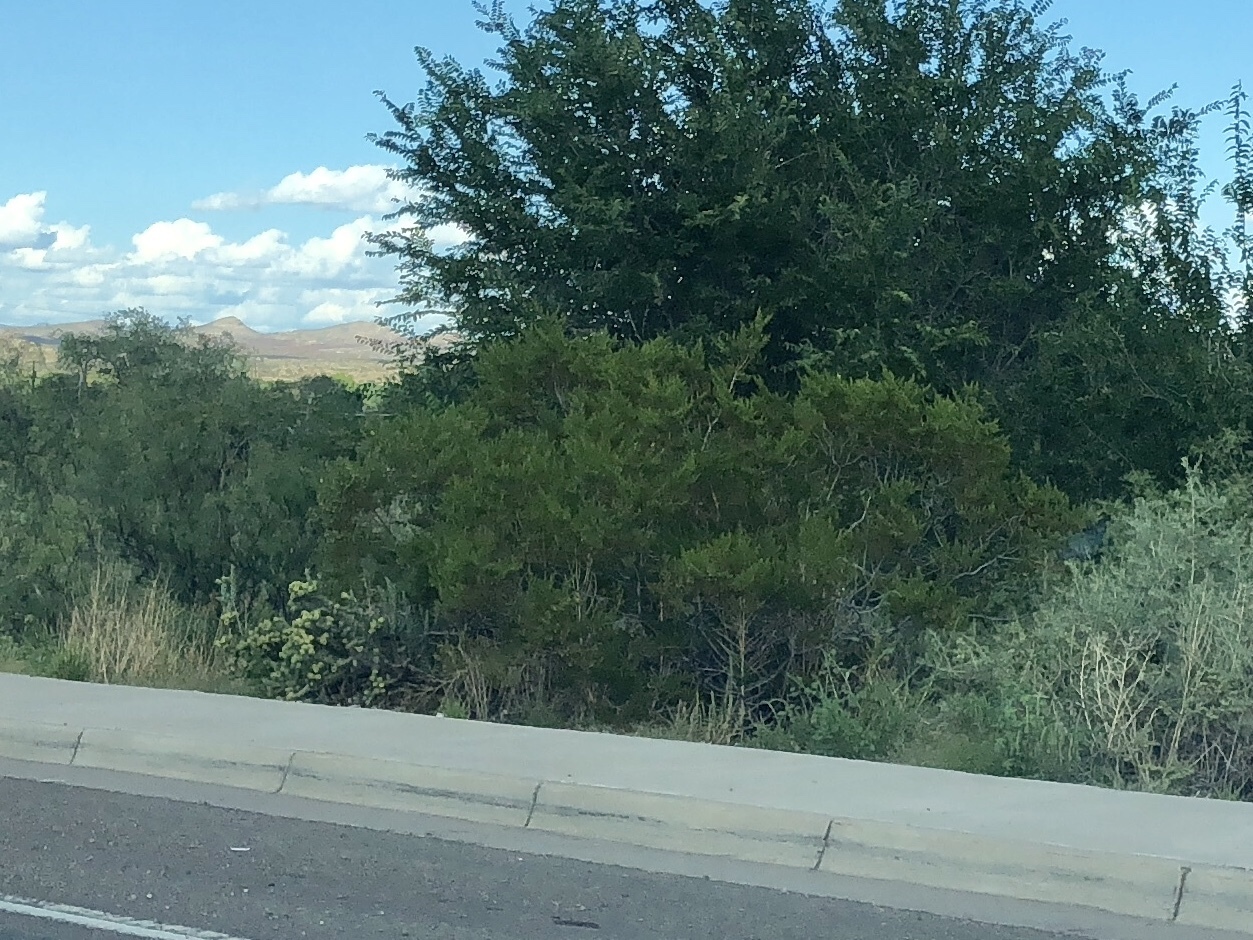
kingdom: Plantae
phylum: Tracheophyta
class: Magnoliopsida
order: Zygophyllales
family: Zygophyllaceae
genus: Larrea
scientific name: Larrea tridentata
